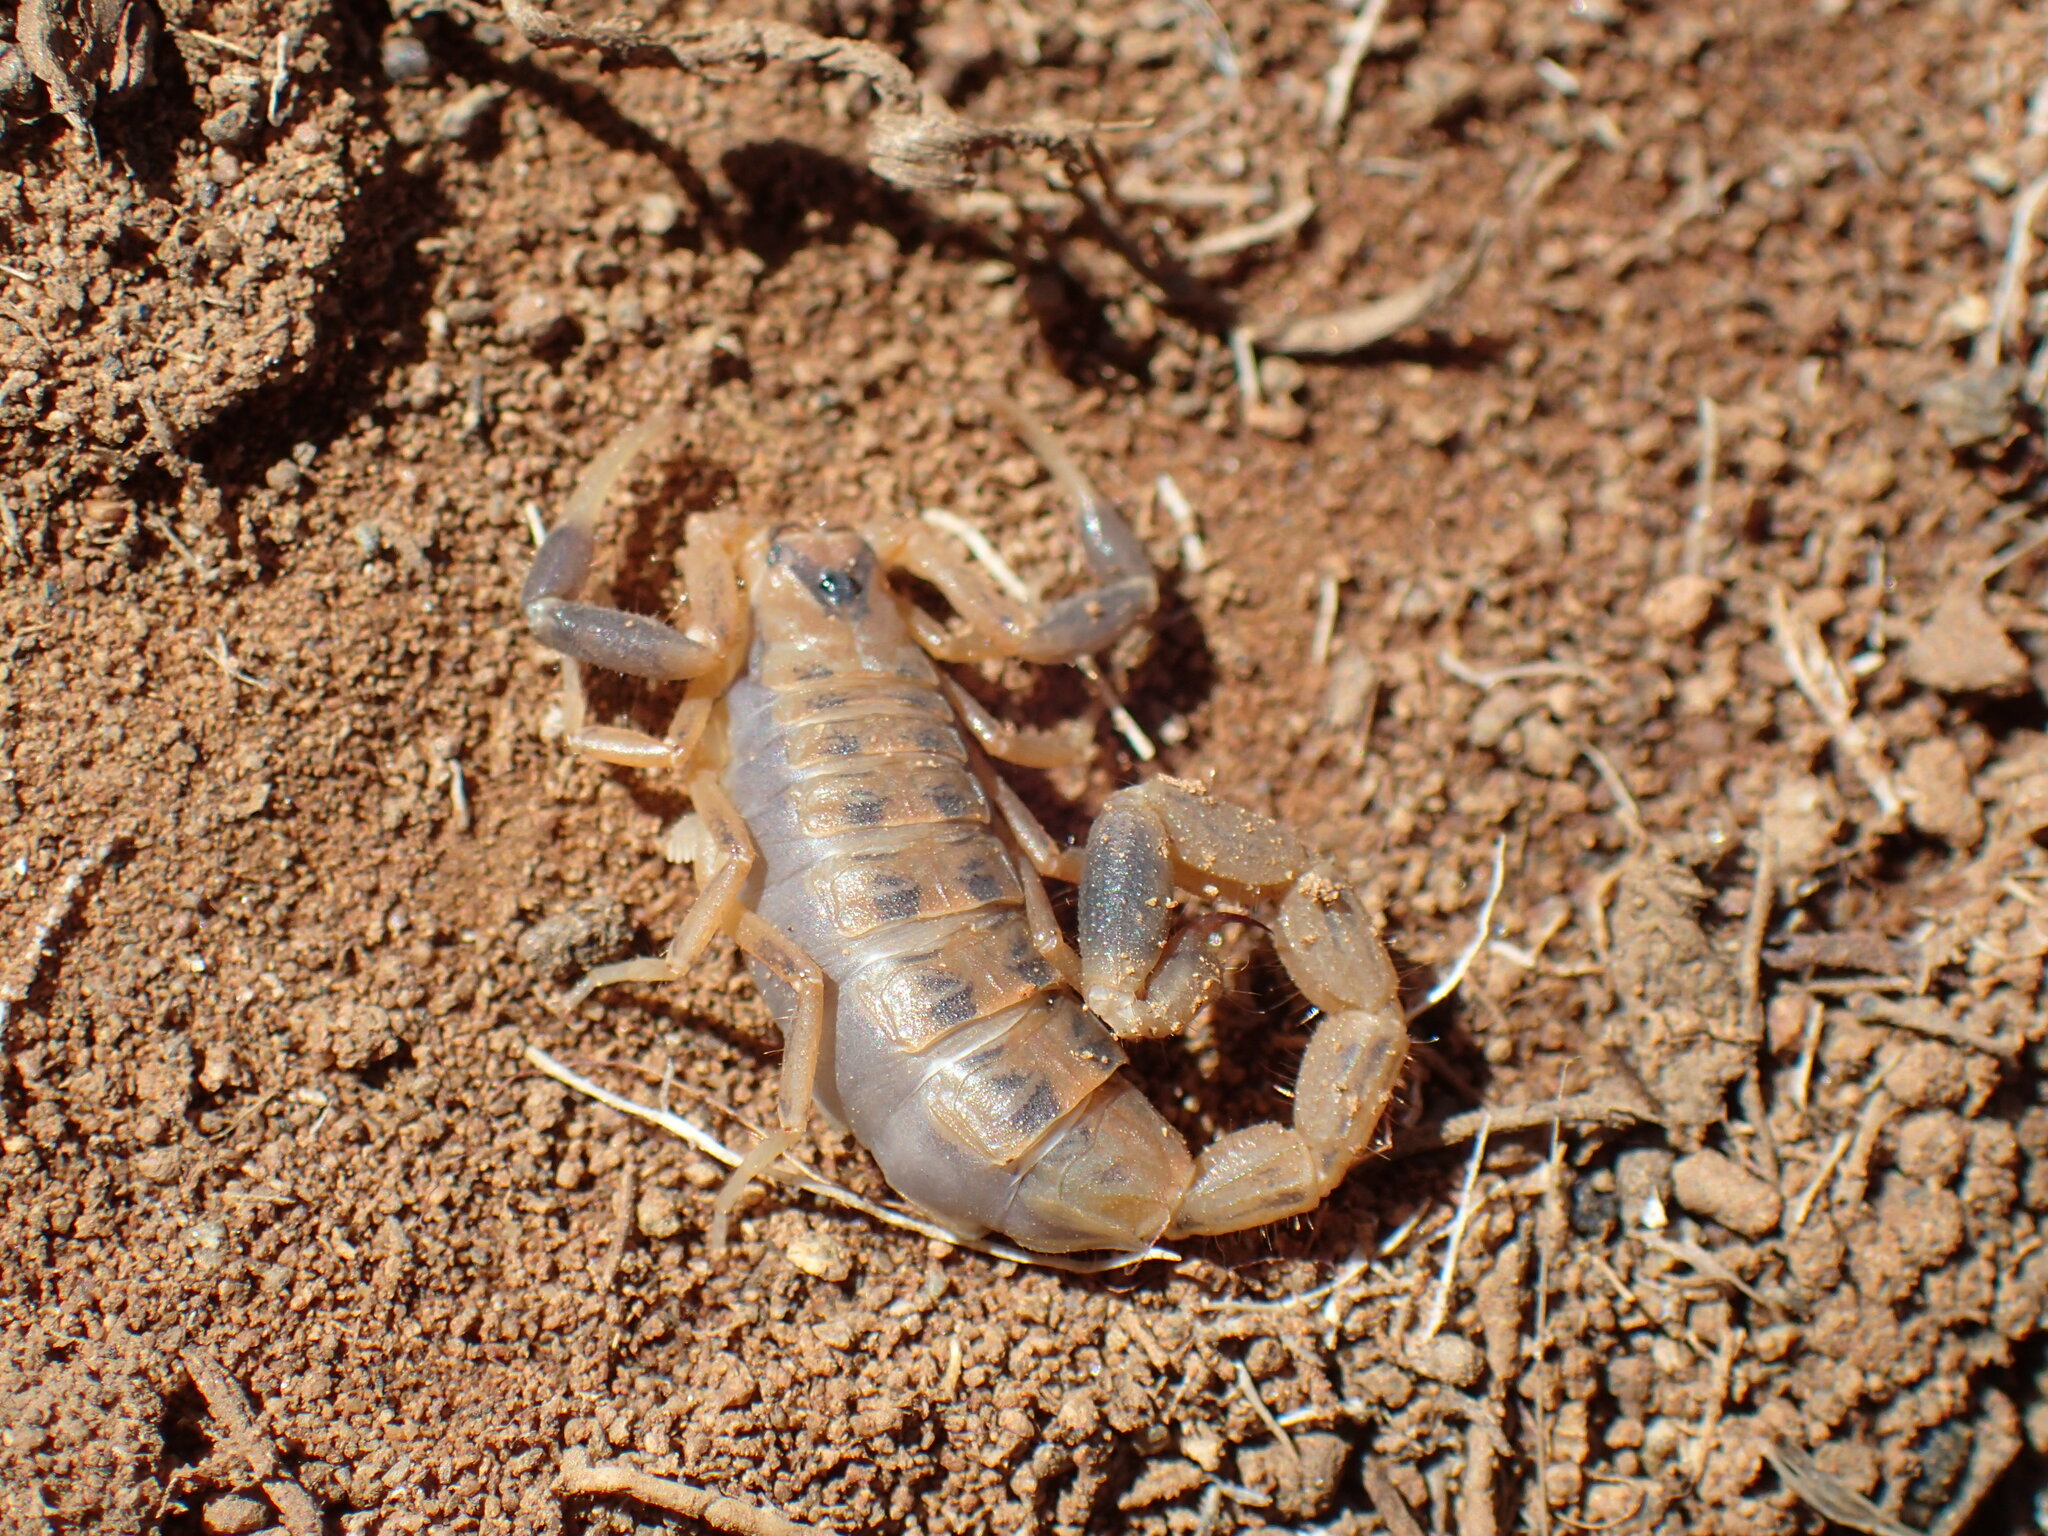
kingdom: Animalia
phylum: Arthropoda
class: Arachnida
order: Scorpiones
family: Buthidae
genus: Uroplectes
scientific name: Uroplectes triangulifer
